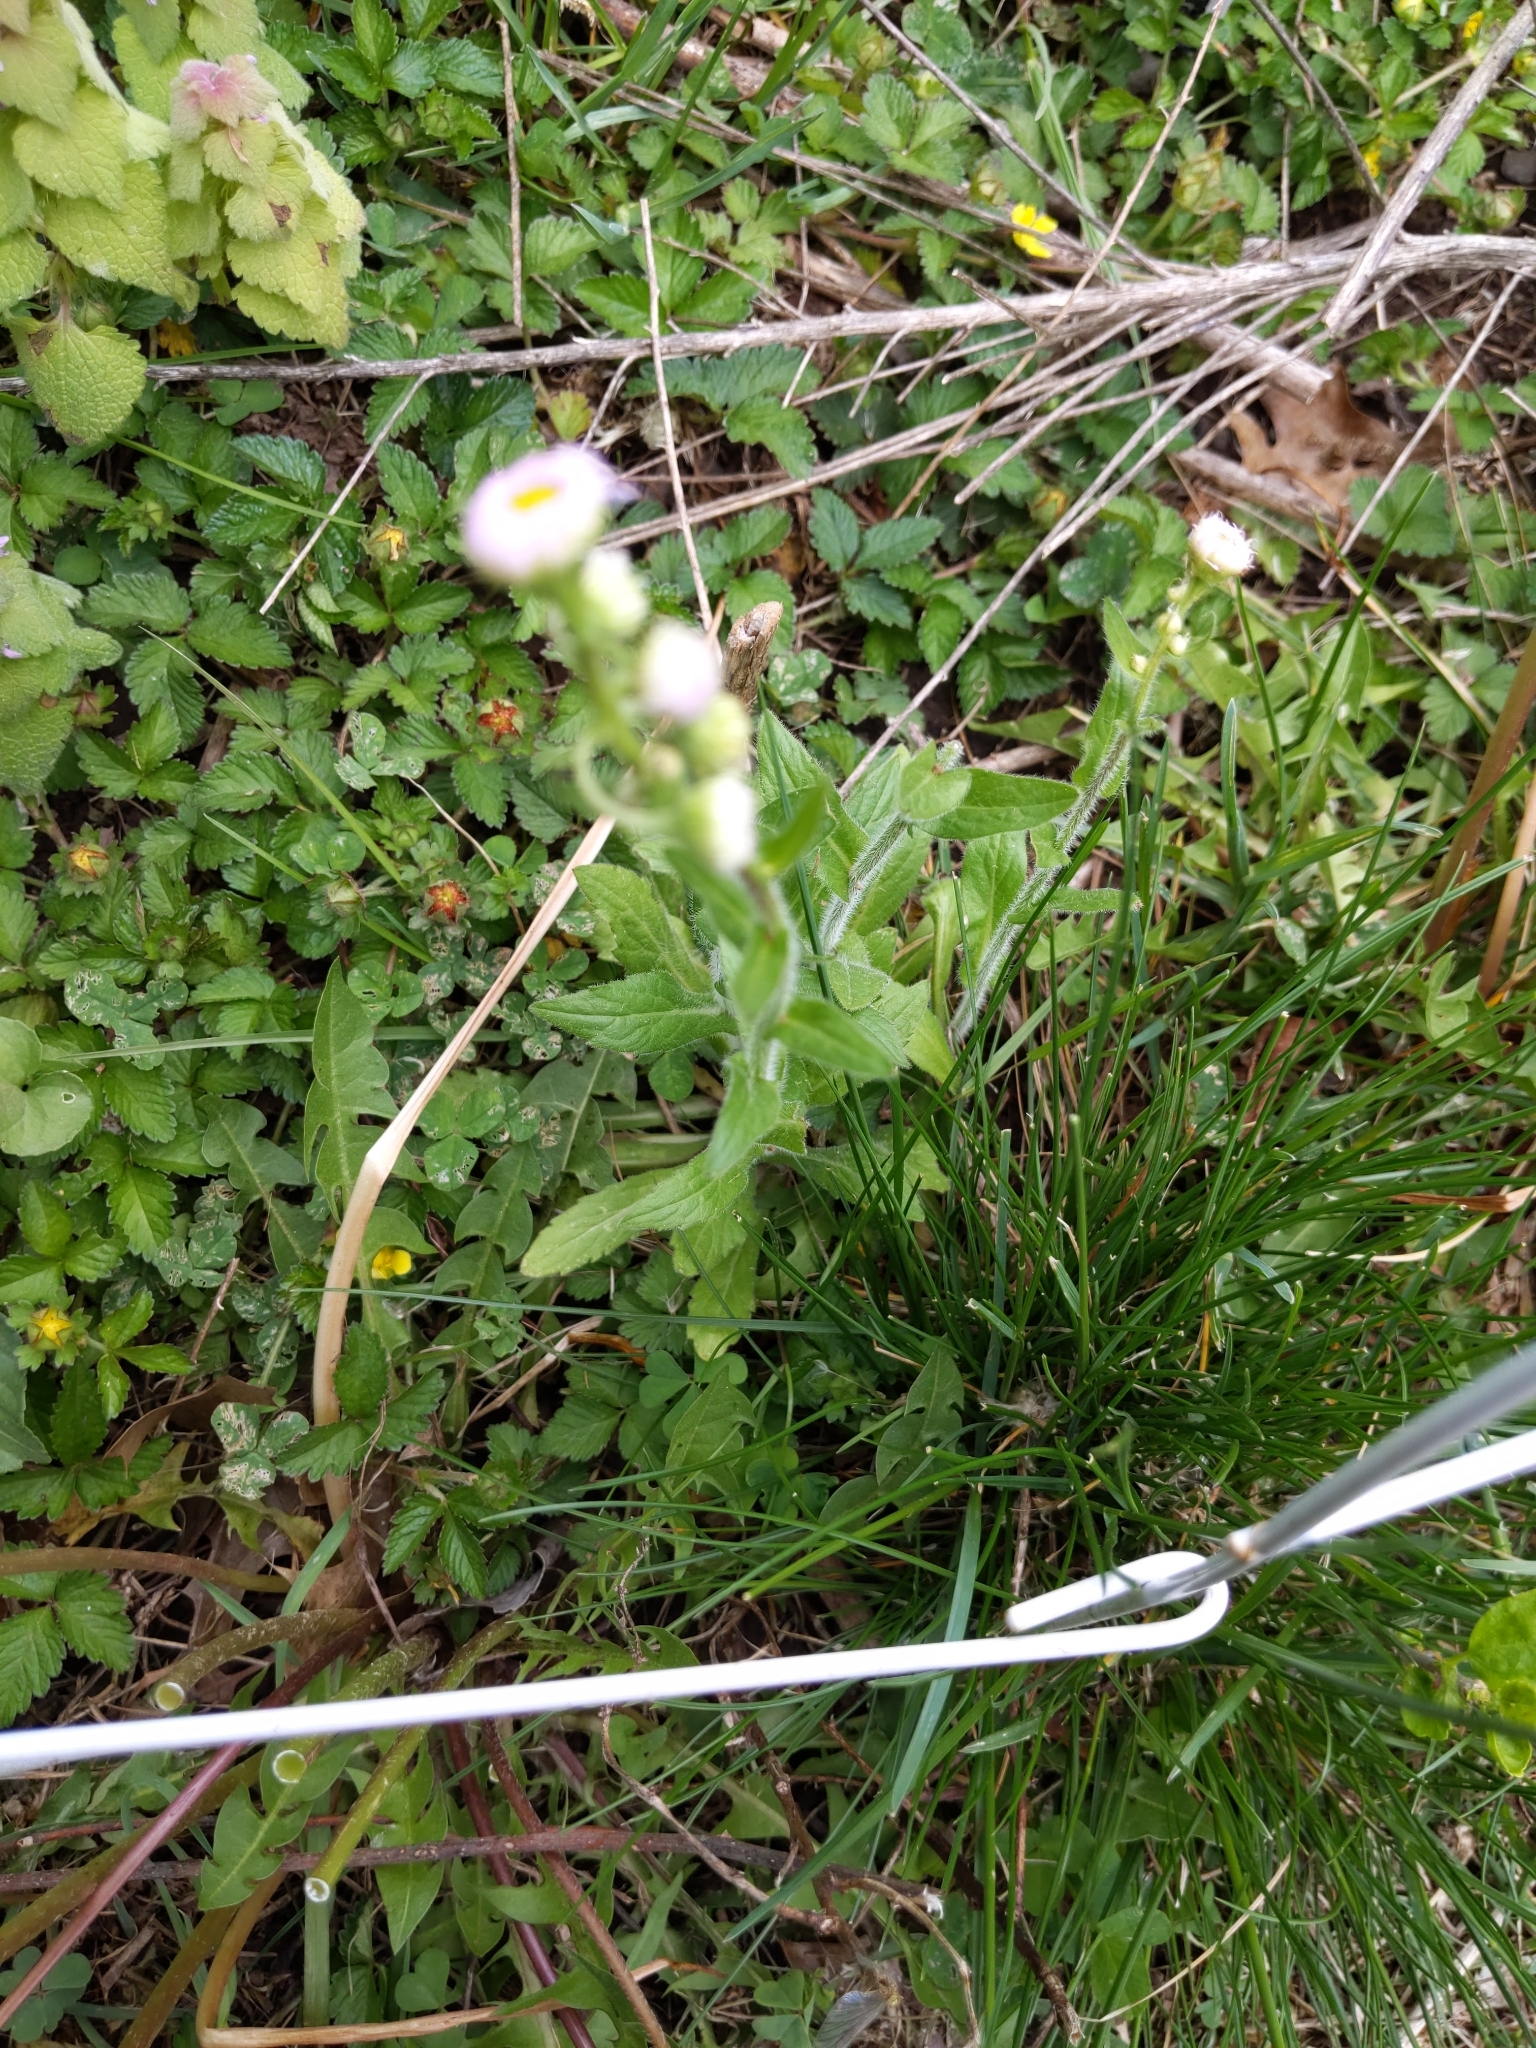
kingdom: Plantae
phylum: Tracheophyta
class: Magnoliopsida
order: Asterales
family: Asteraceae
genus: Erigeron
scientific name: Erigeron philadelphicus
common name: Robin's-plantain
